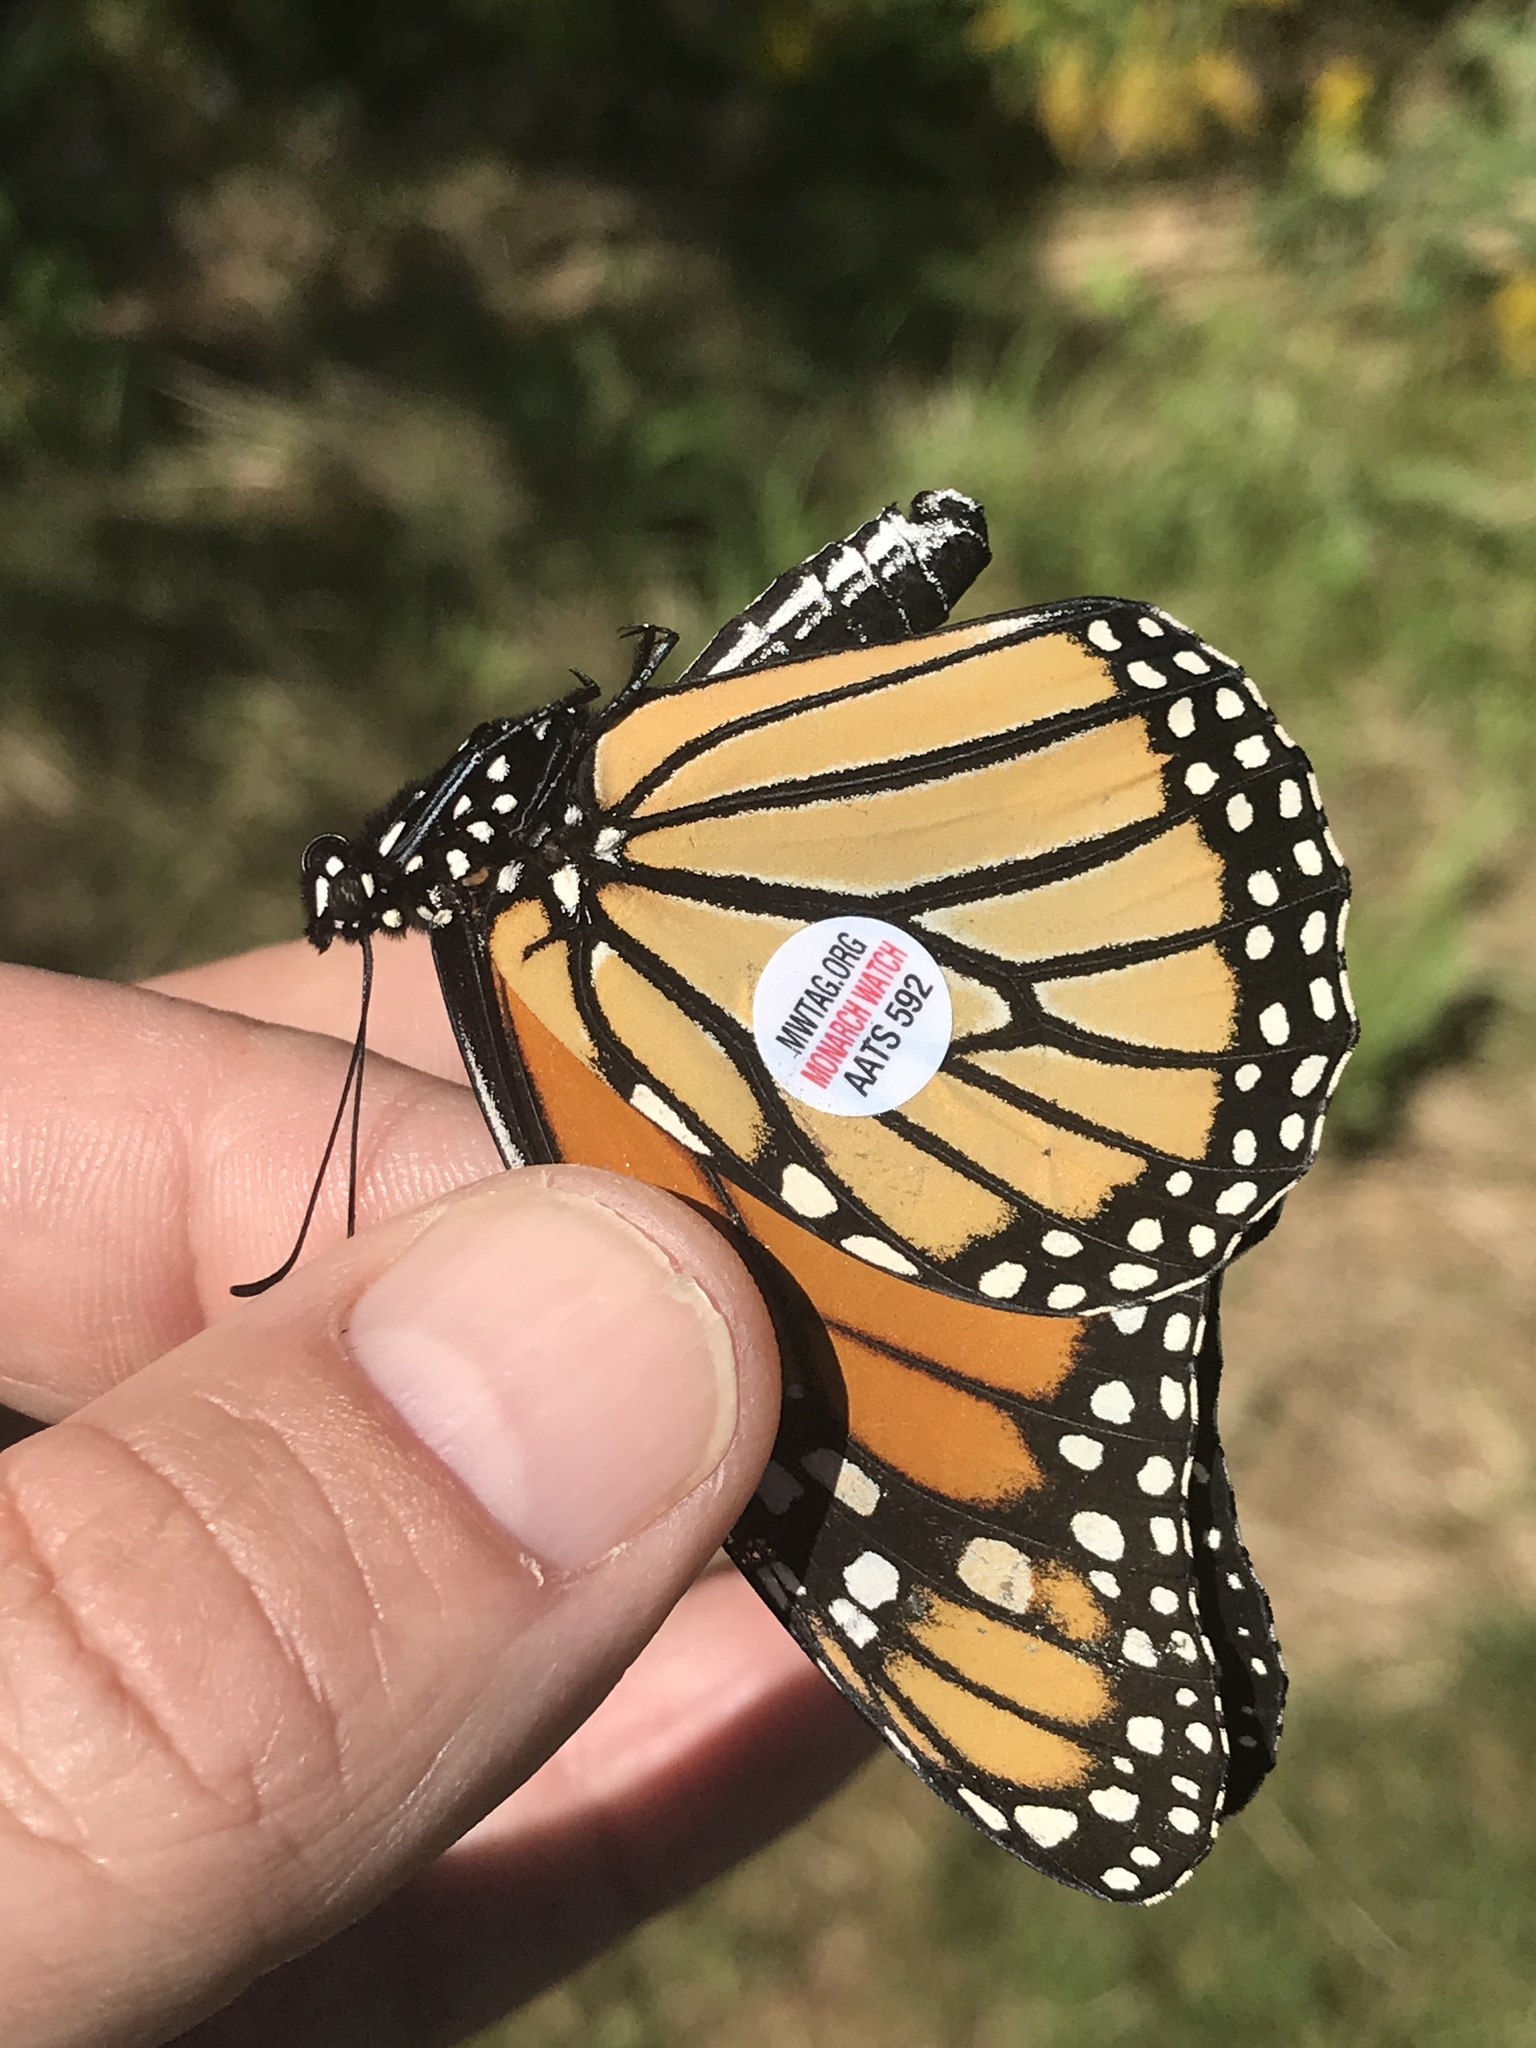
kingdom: Animalia
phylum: Arthropoda
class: Insecta
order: Lepidoptera
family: Nymphalidae
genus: Danaus
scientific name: Danaus plexippus
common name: Monarch
